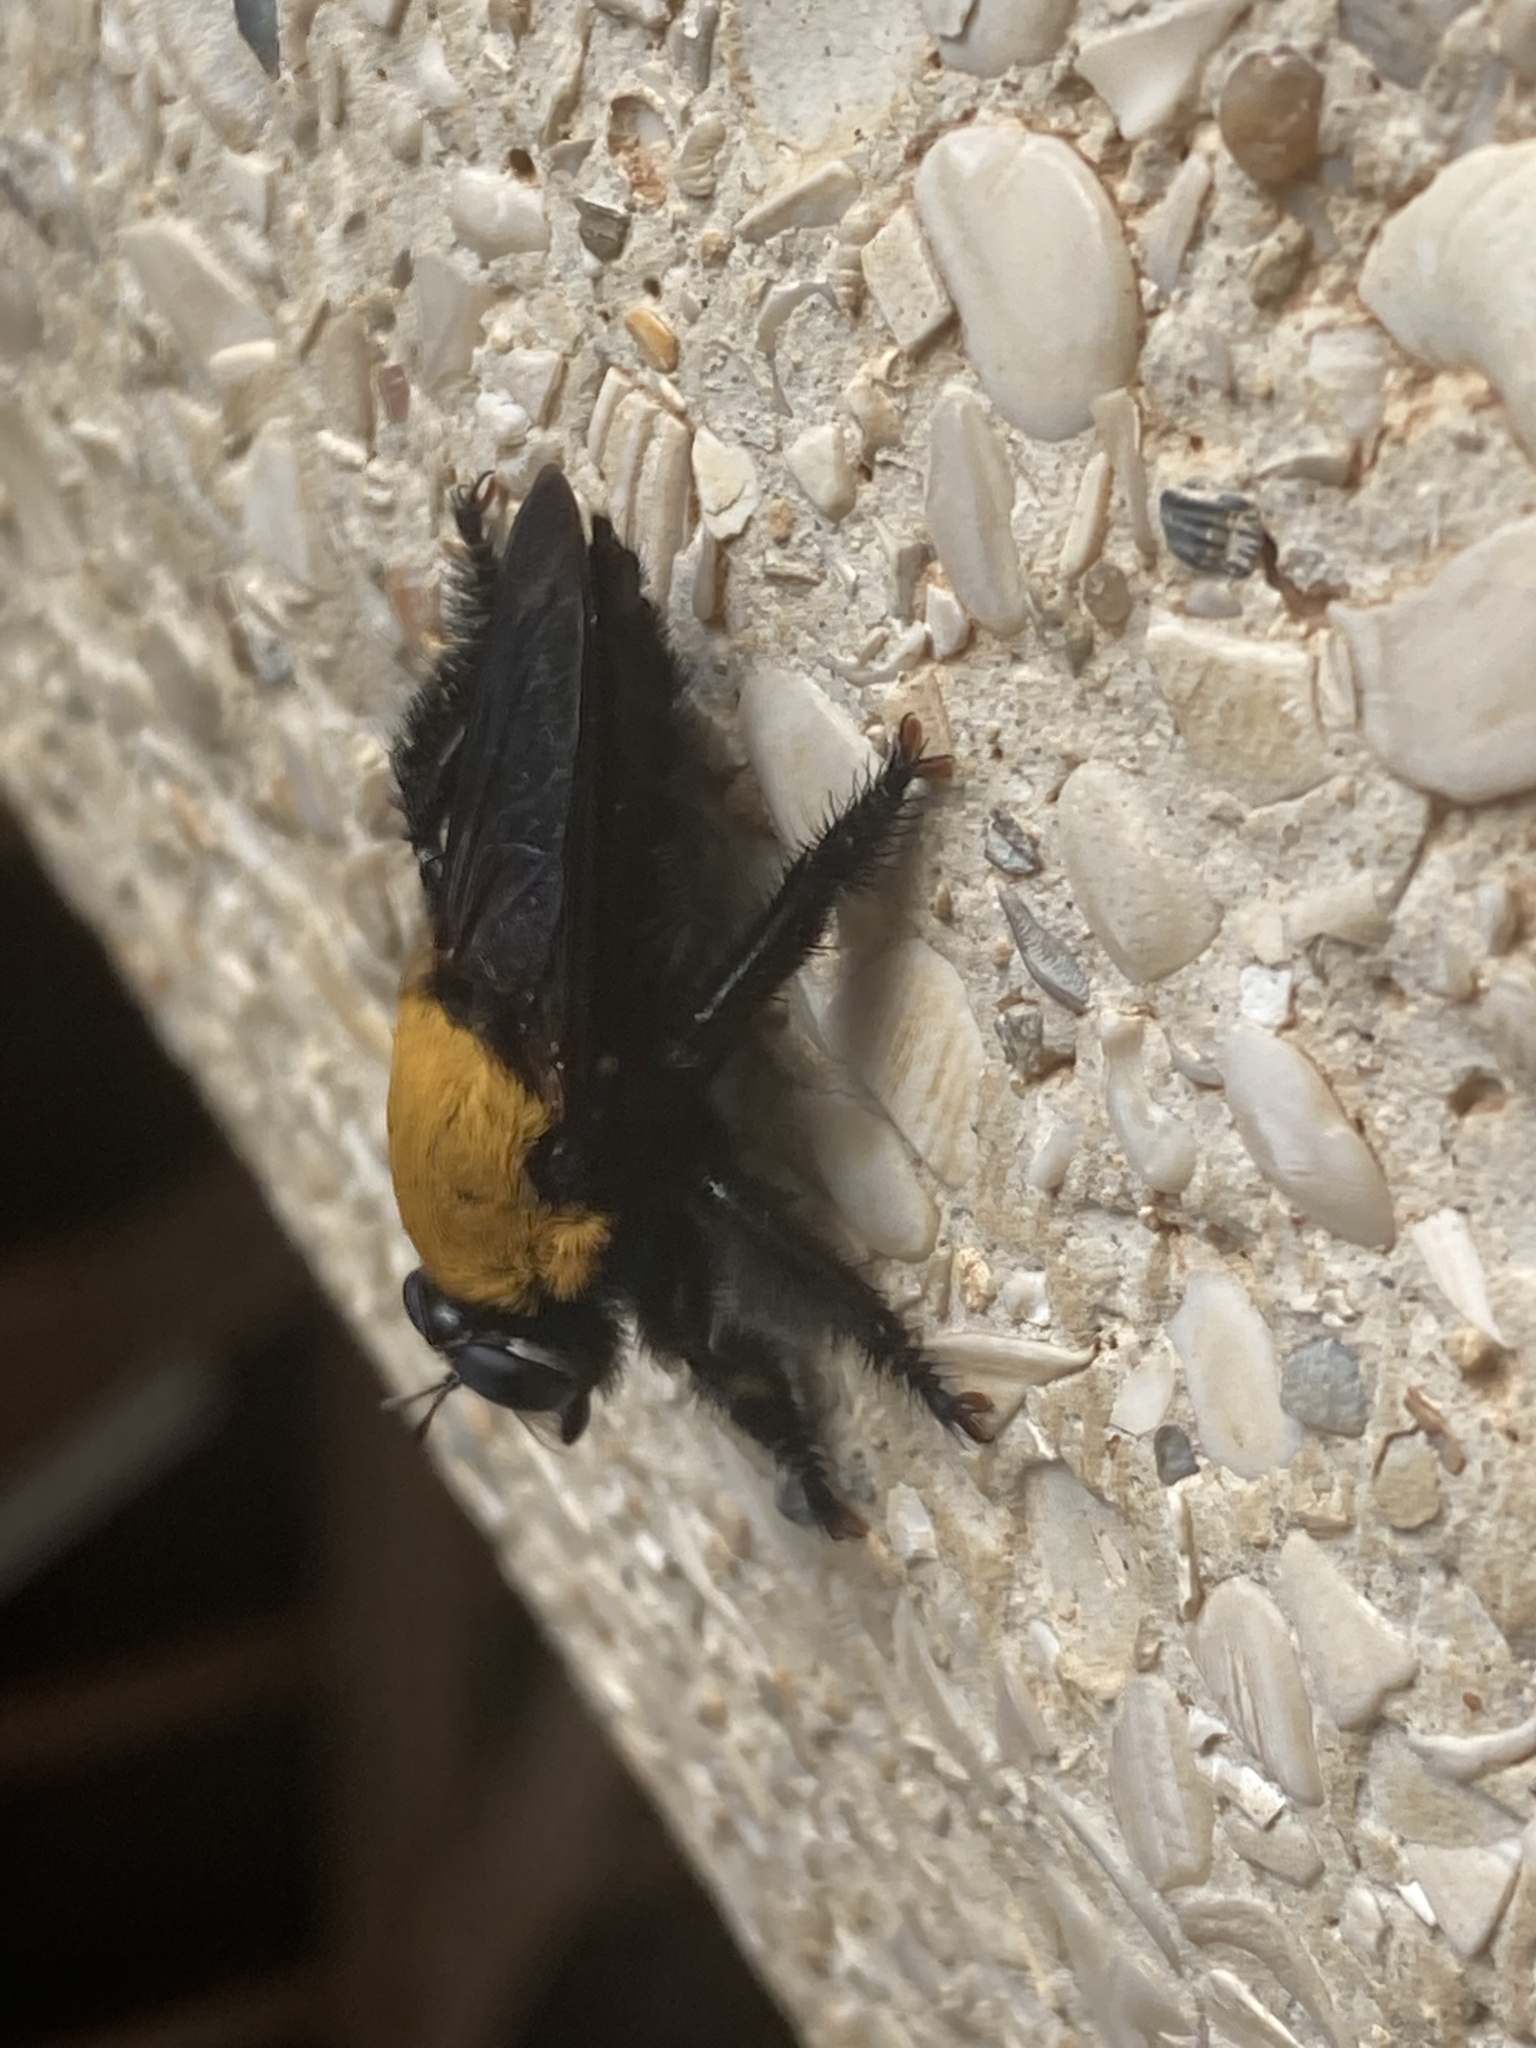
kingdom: Animalia
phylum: Arthropoda
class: Insecta
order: Diptera
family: Asilidae
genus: Hyperechia
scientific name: Hyperechia
